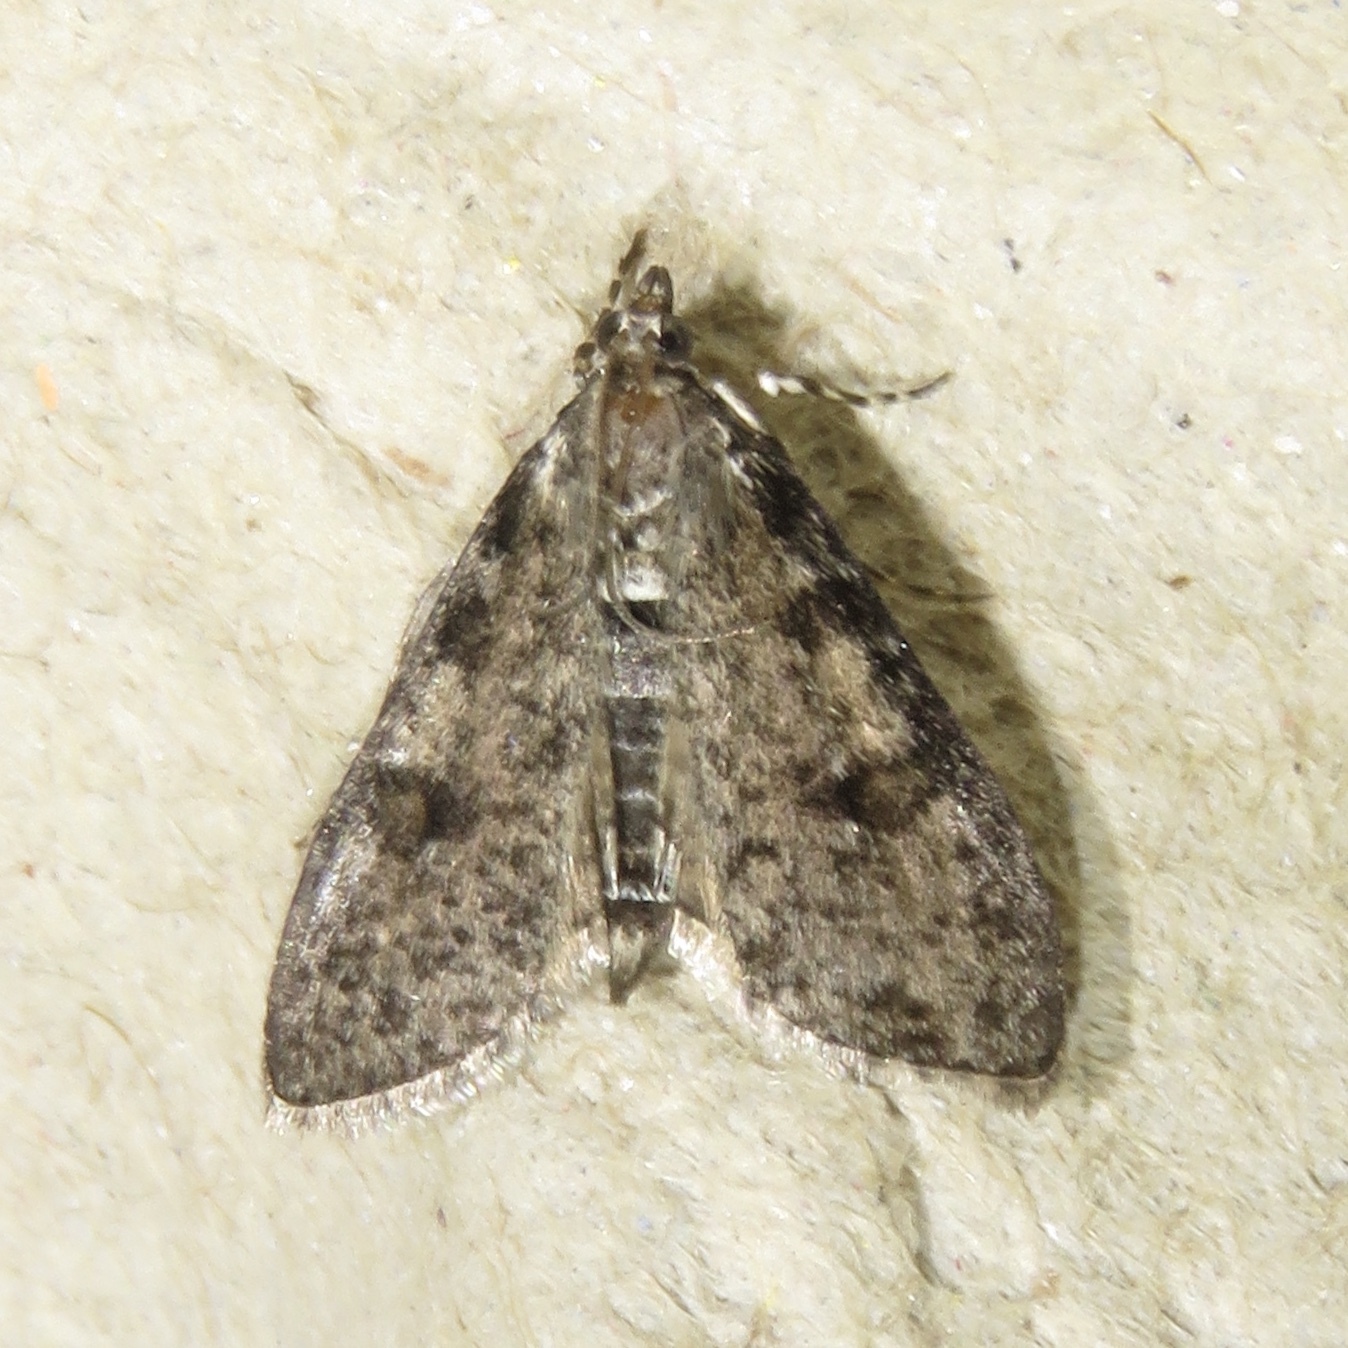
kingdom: Animalia
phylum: Arthropoda
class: Insecta
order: Lepidoptera
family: Crambidae
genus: Palpita
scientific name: Palpita aenescentalis
